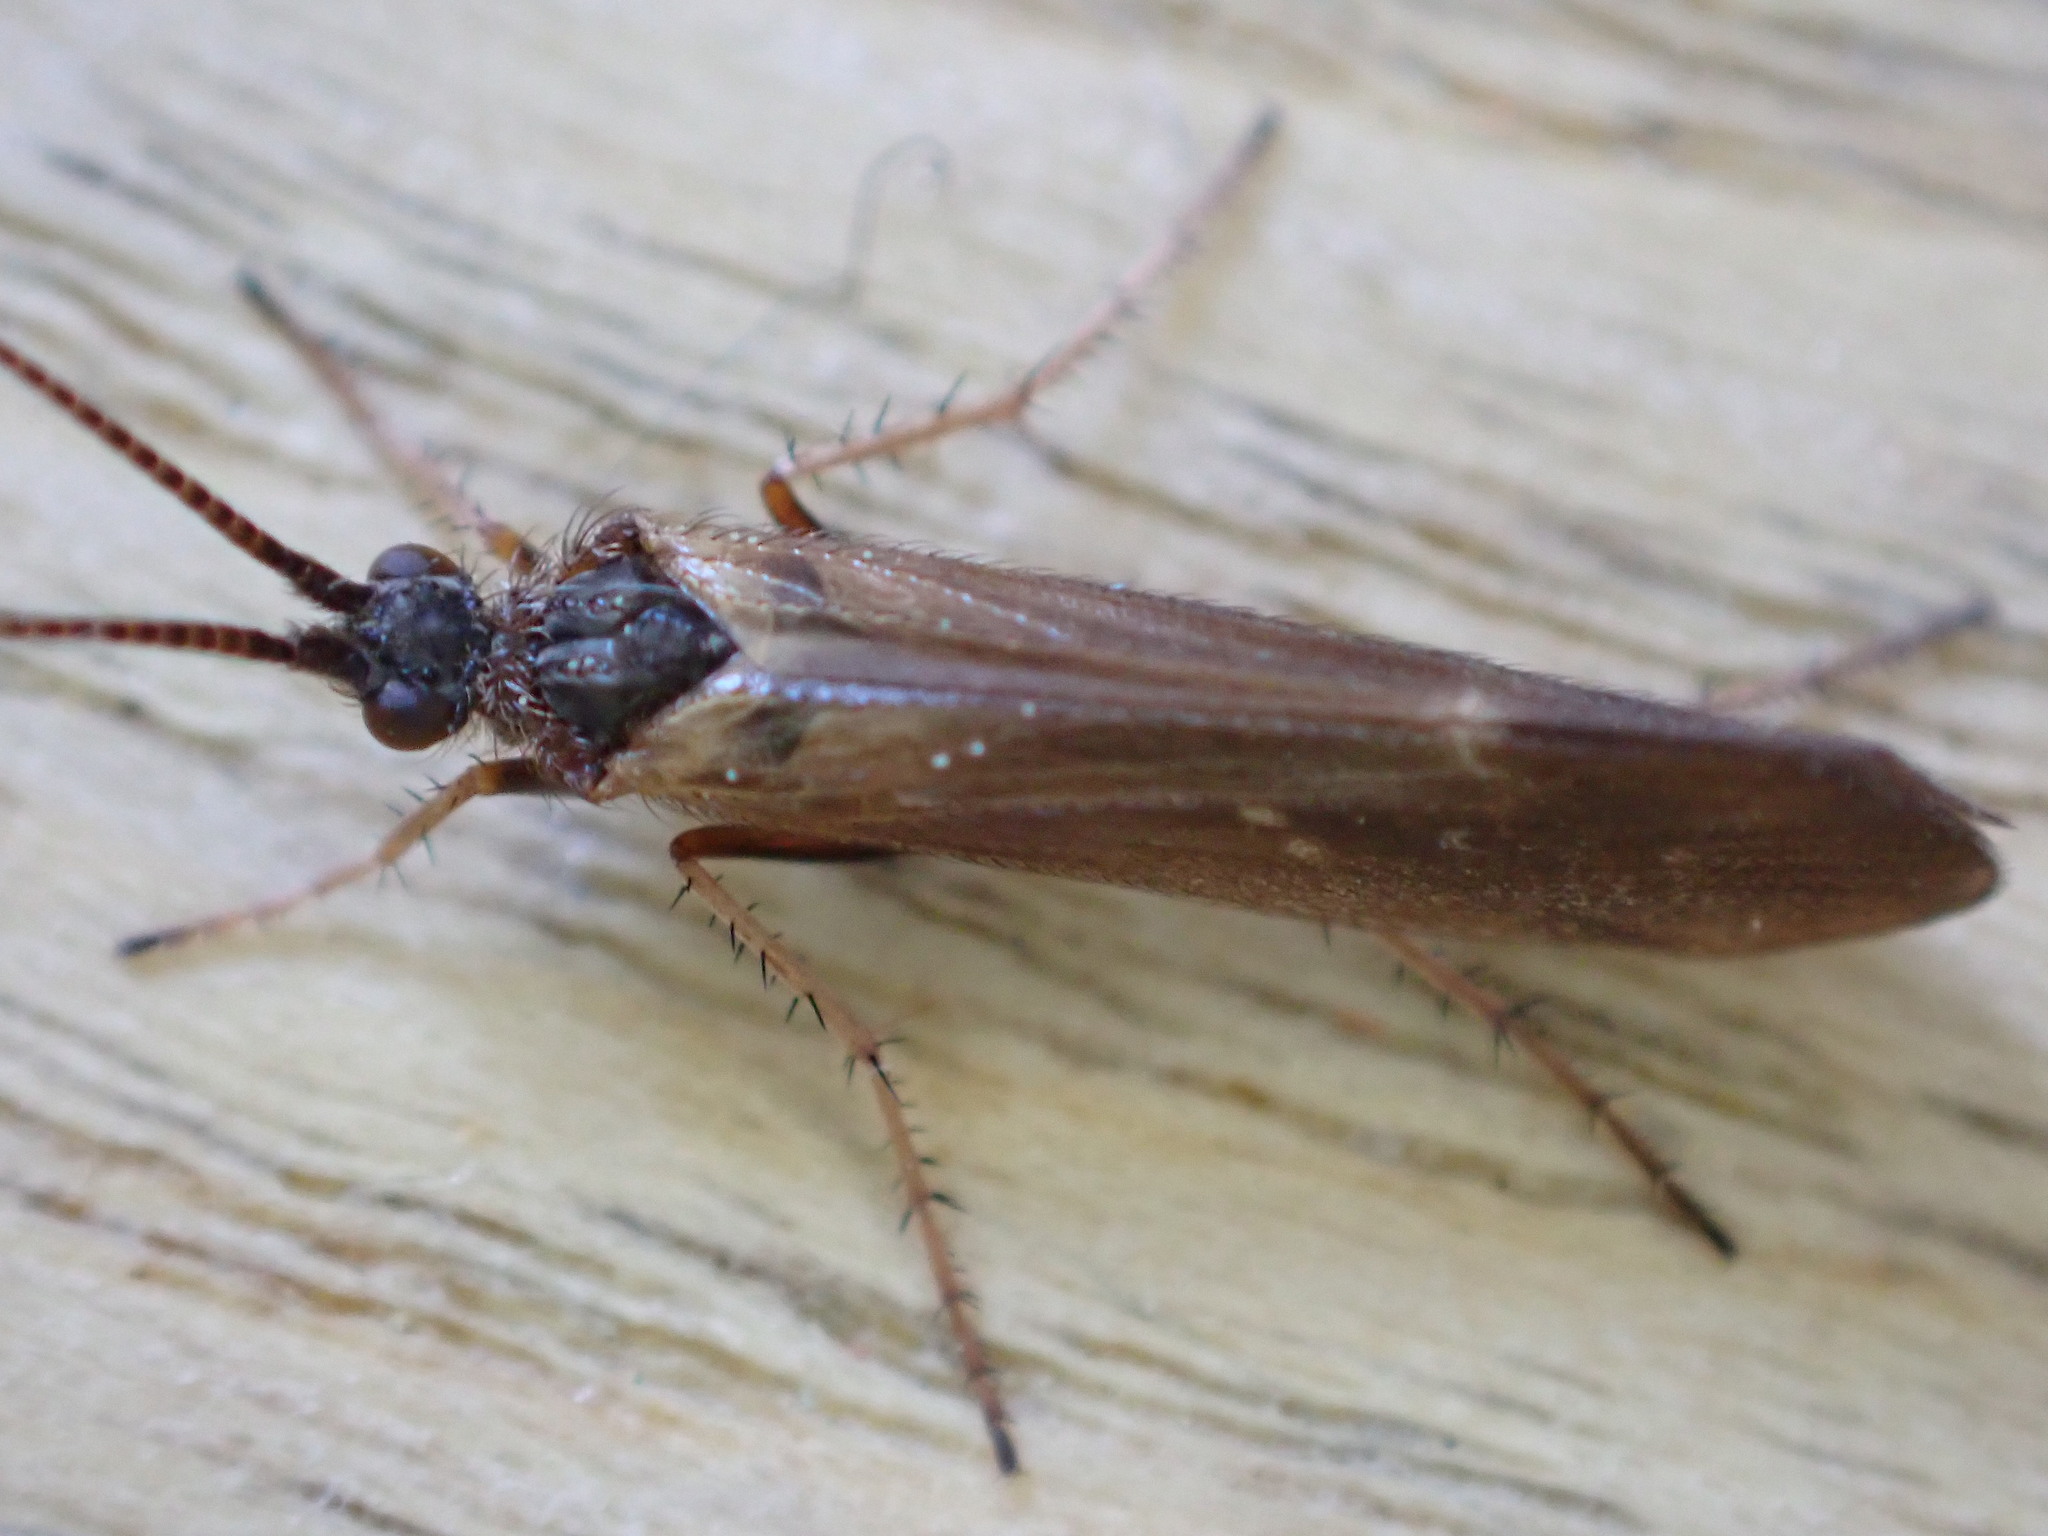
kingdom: Animalia
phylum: Arthropoda
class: Insecta
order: Trichoptera
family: Limnephilidae
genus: Limnephilus
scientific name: Limnephilus auricula
